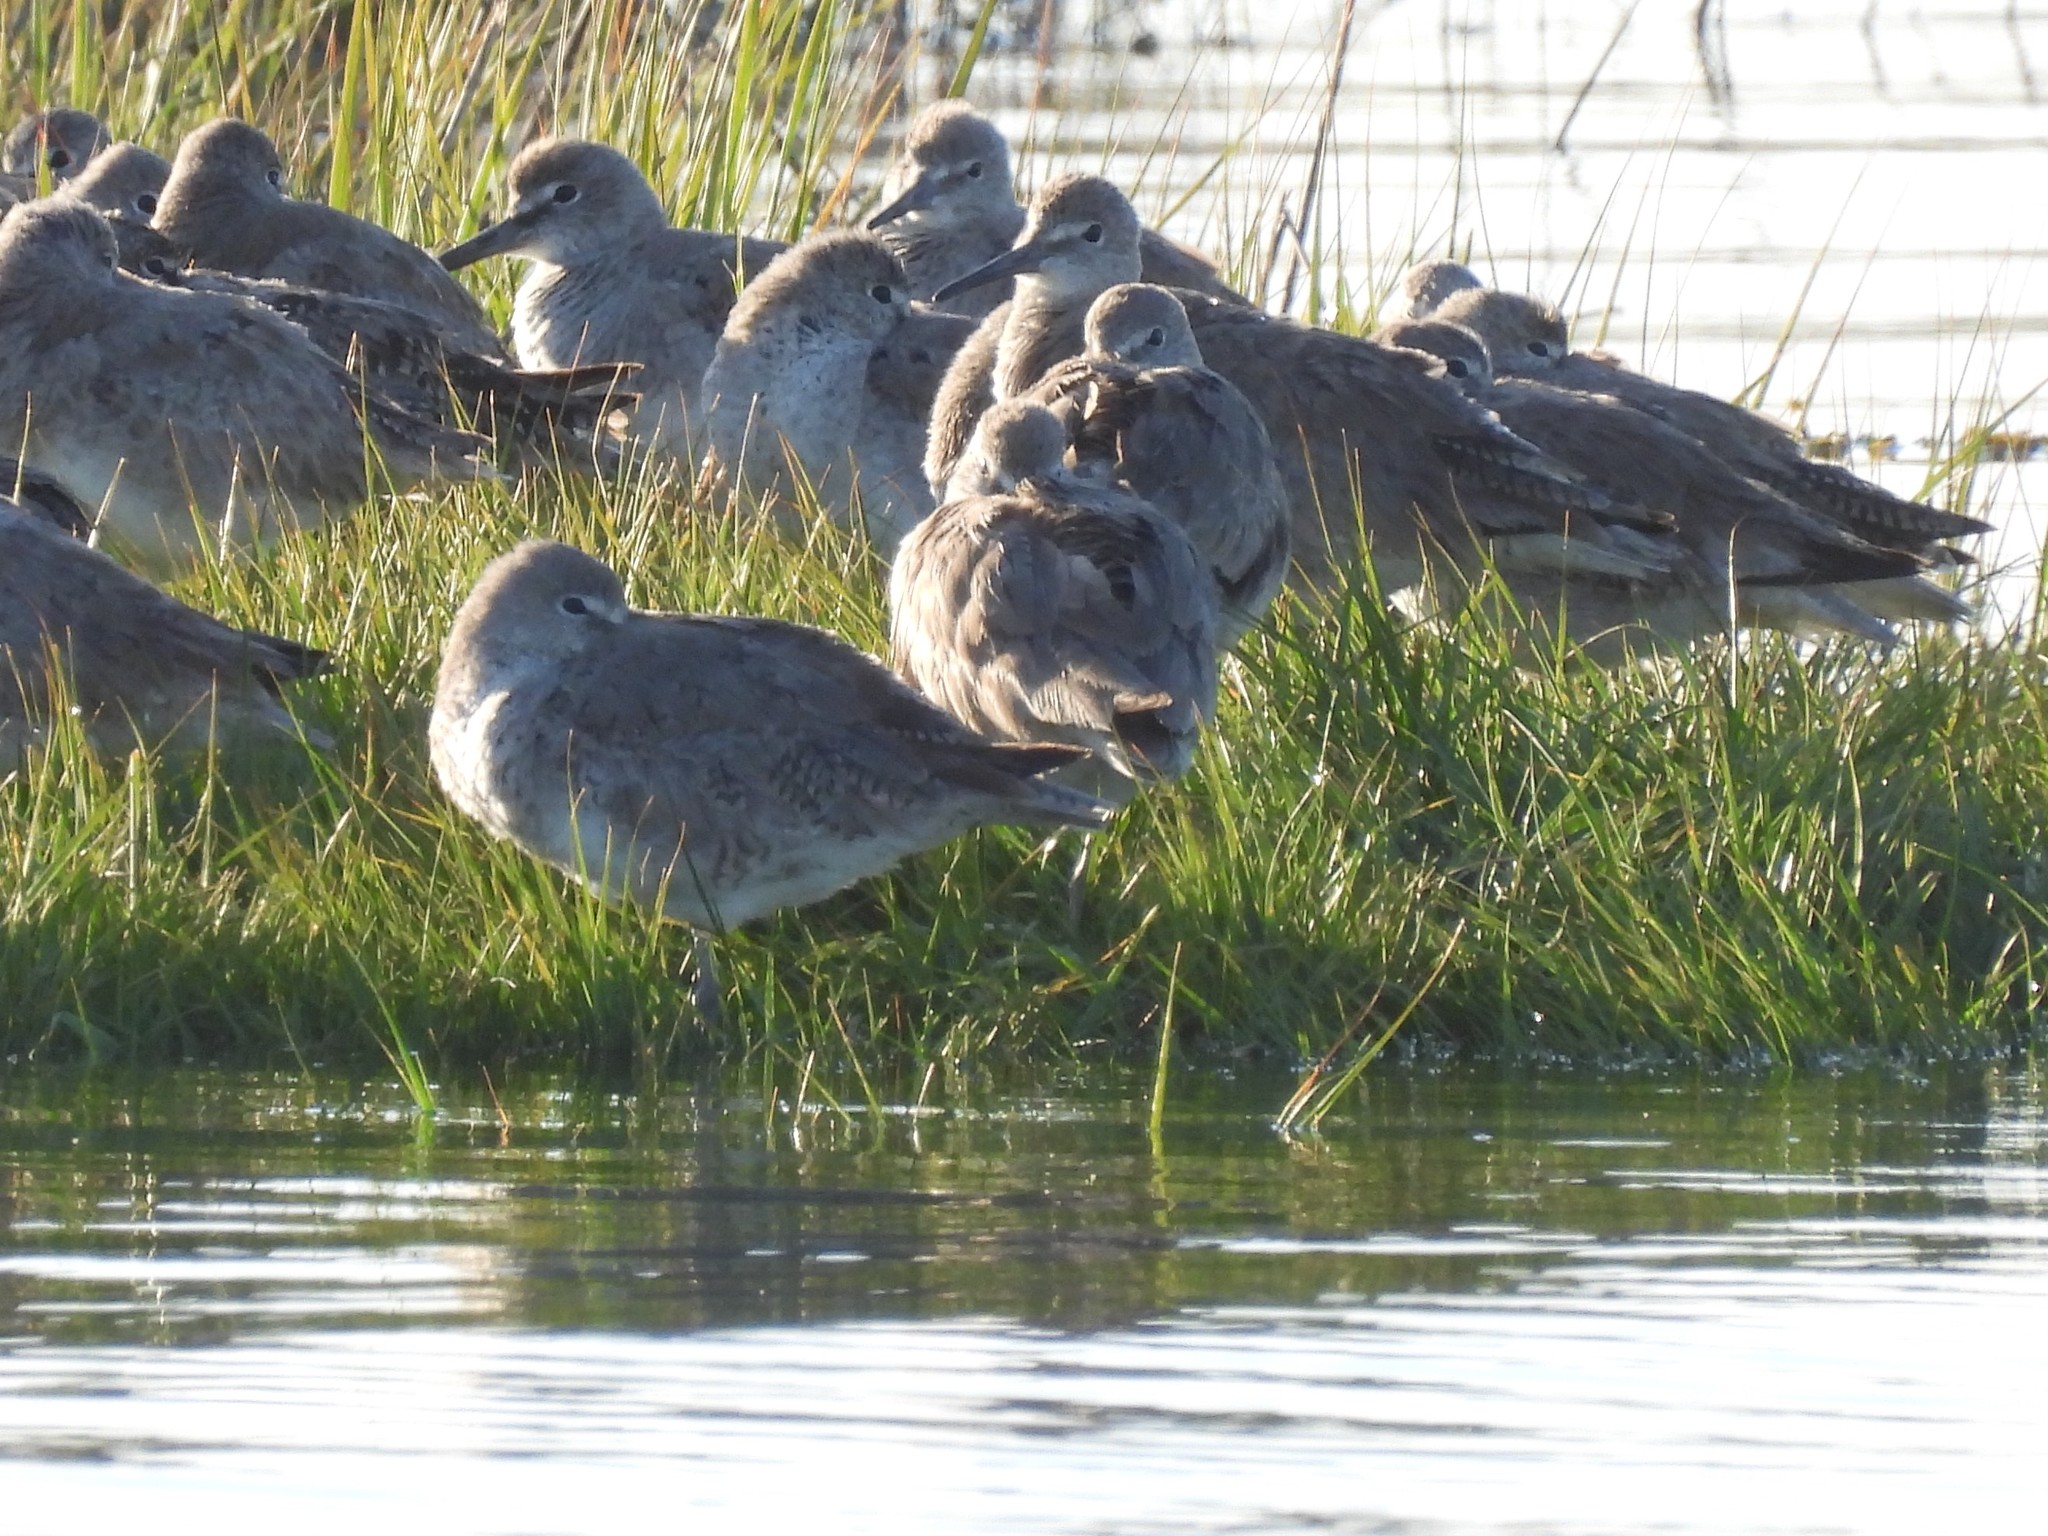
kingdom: Animalia
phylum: Chordata
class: Aves
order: Charadriiformes
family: Scolopacidae
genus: Tringa
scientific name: Tringa semipalmata
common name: Willet
